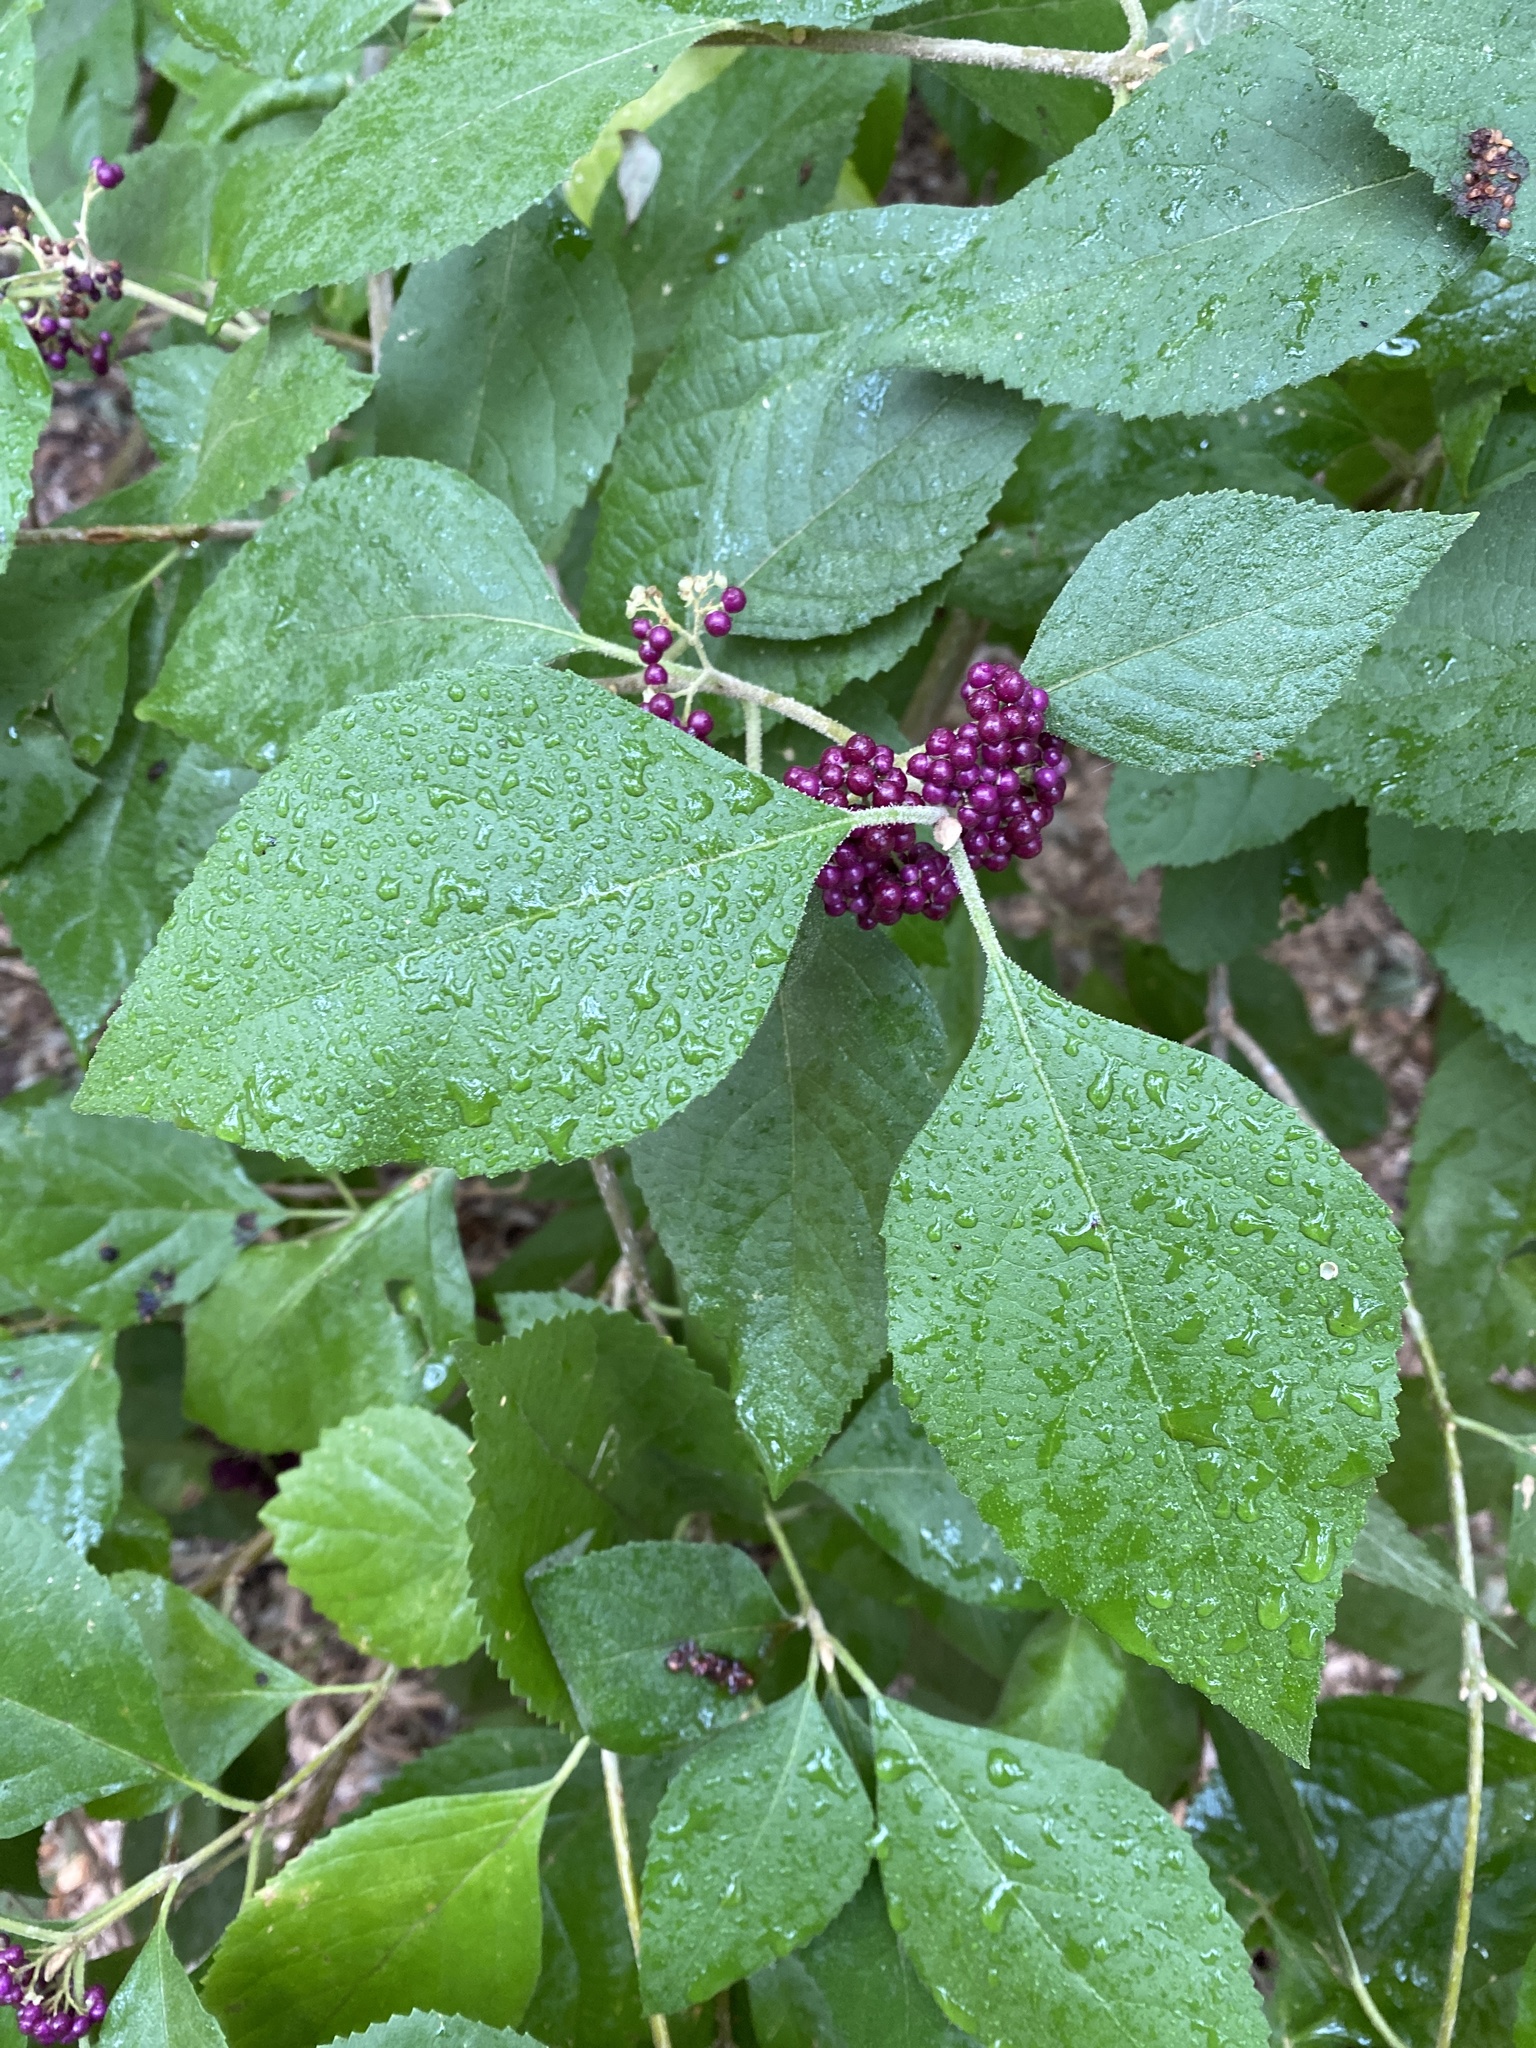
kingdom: Plantae
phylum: Tracheophyta
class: Magnoliopsida
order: Lamiales
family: Lamiaceae
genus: Callicarpa
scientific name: Callicarpa americana
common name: American beautyberry
